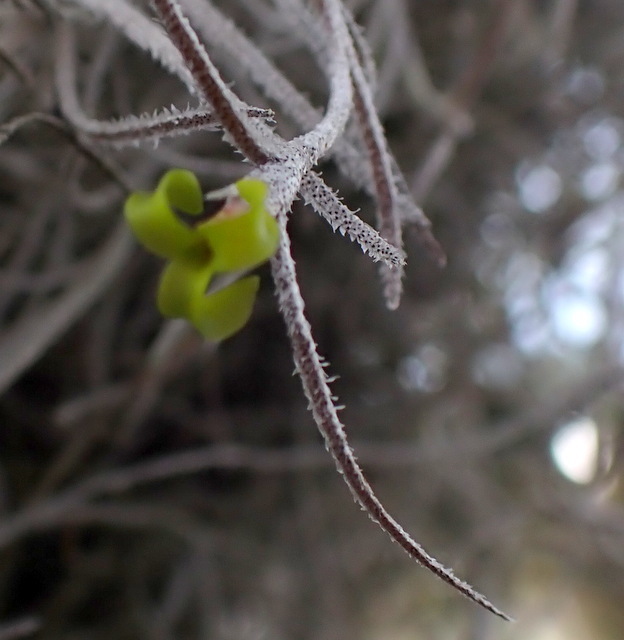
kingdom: Plantae
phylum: Tracheophyta
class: Liliopsida
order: Poales
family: Bromeliaceae
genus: Tillandsia
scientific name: Tillandsia usneoides
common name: Spanish moss
